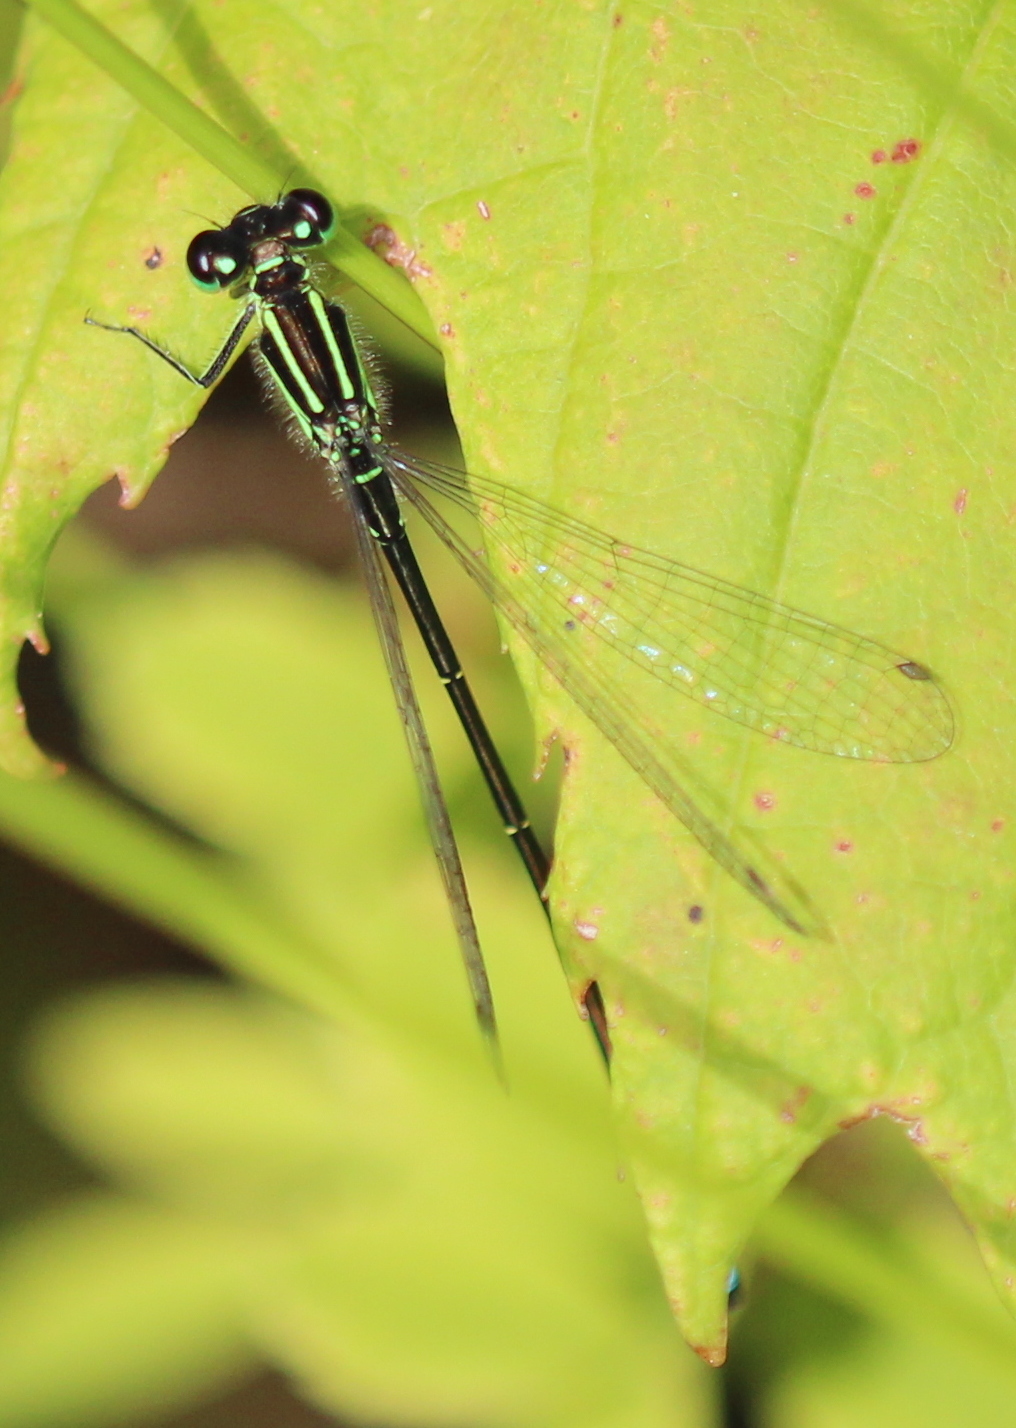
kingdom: Animalia
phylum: Arthropoda
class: Insecta
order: Odonata
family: Coenagrionidae
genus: Ischnura
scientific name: Ischnura verticalis
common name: Eastern forktail
